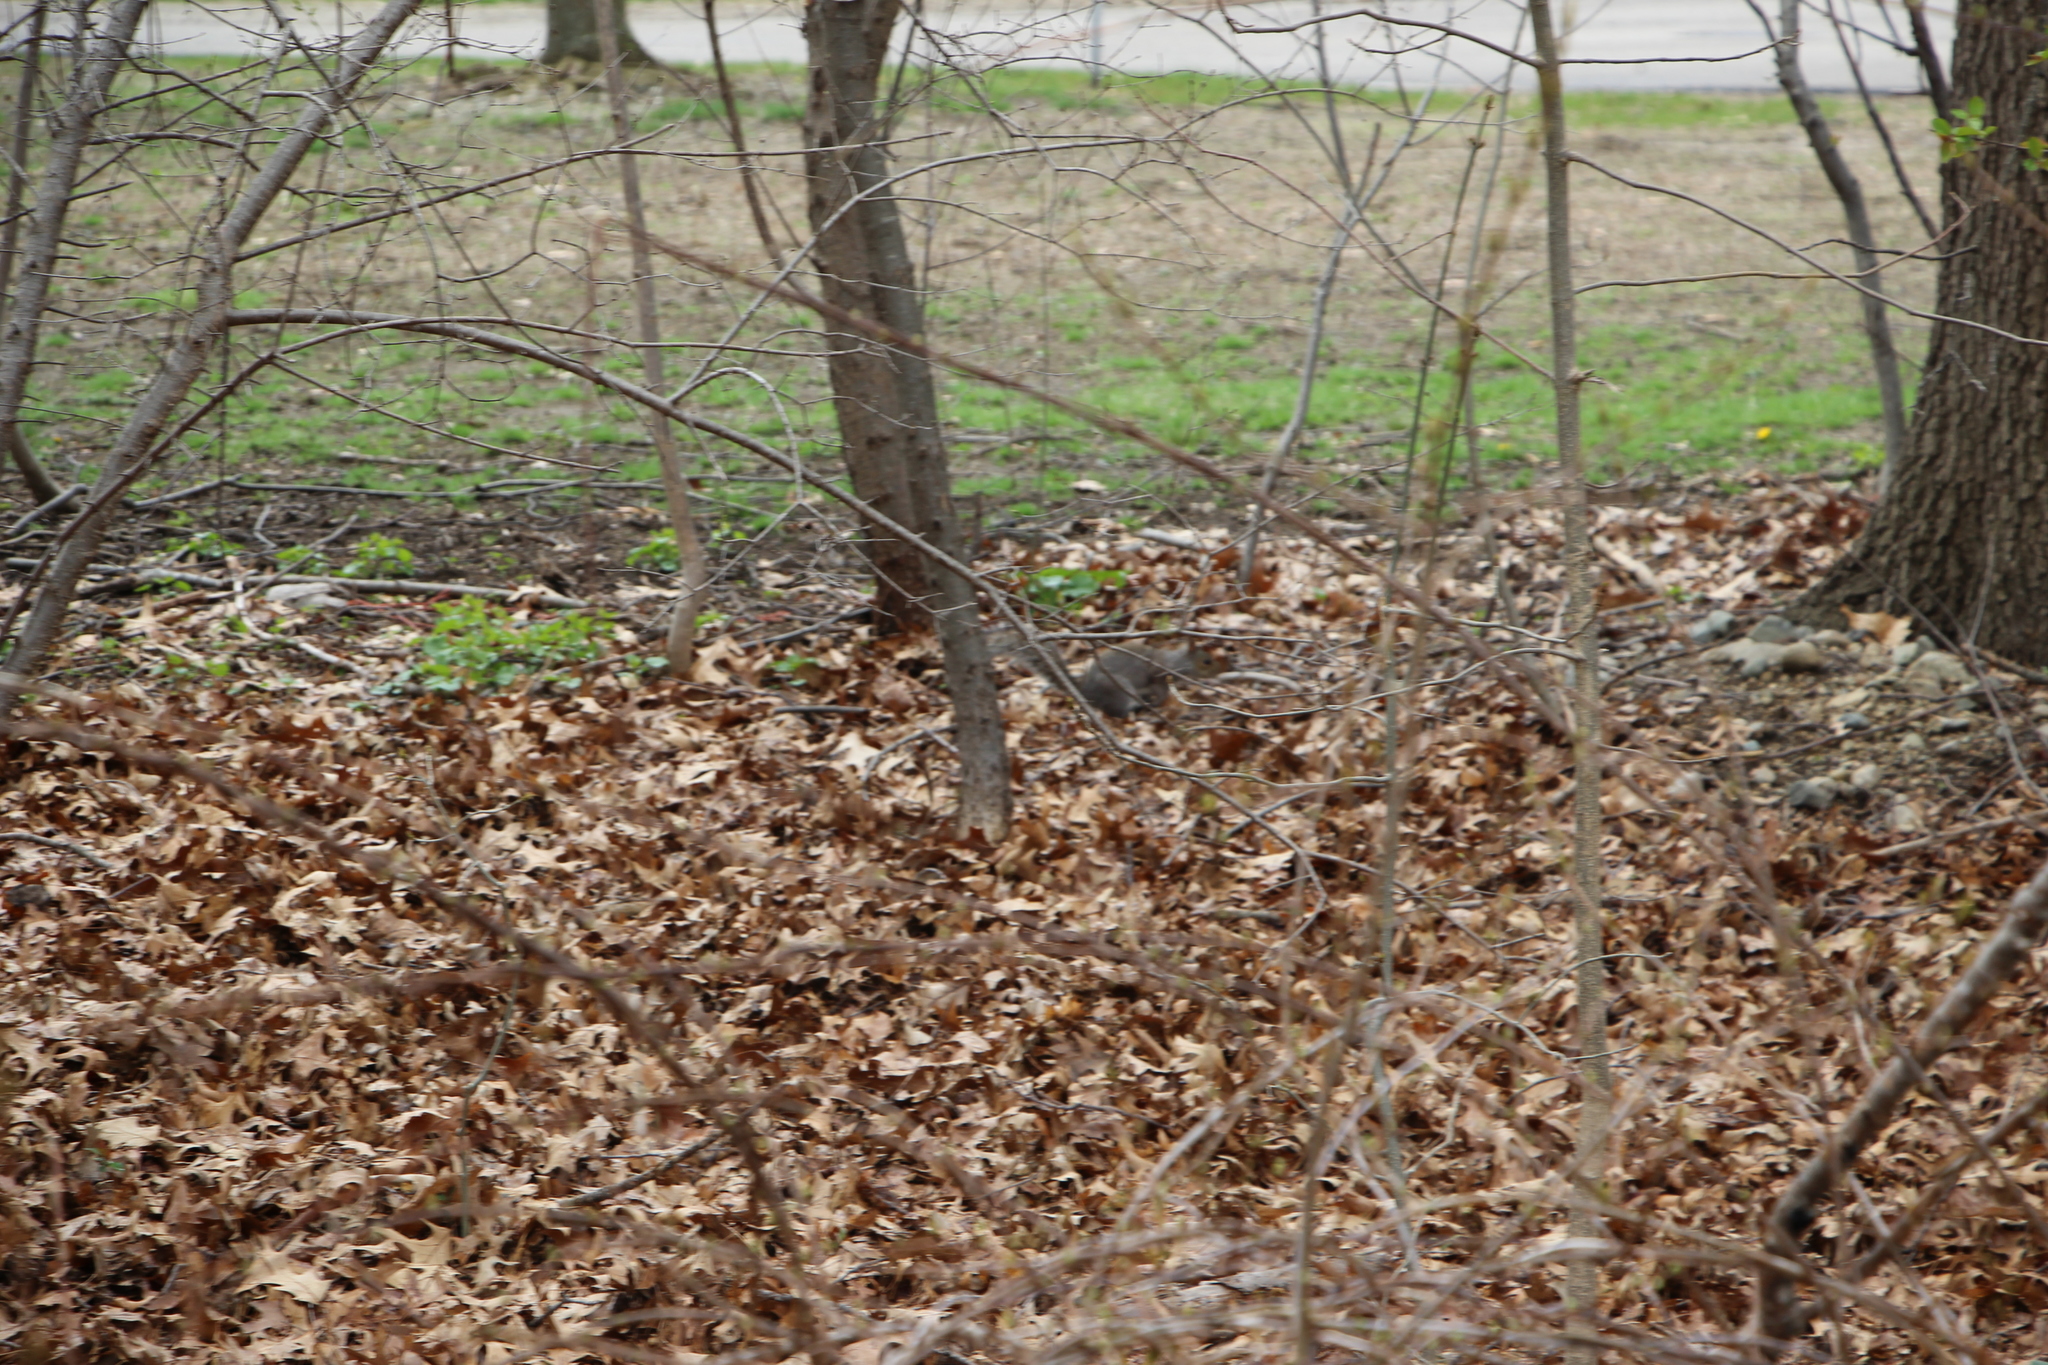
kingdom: Animalia
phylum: Chordata
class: Mammalia
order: Rodentia
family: Sciuridae
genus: Sciurus
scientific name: Sciurus carolinensis
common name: Eastern gray squirrel
